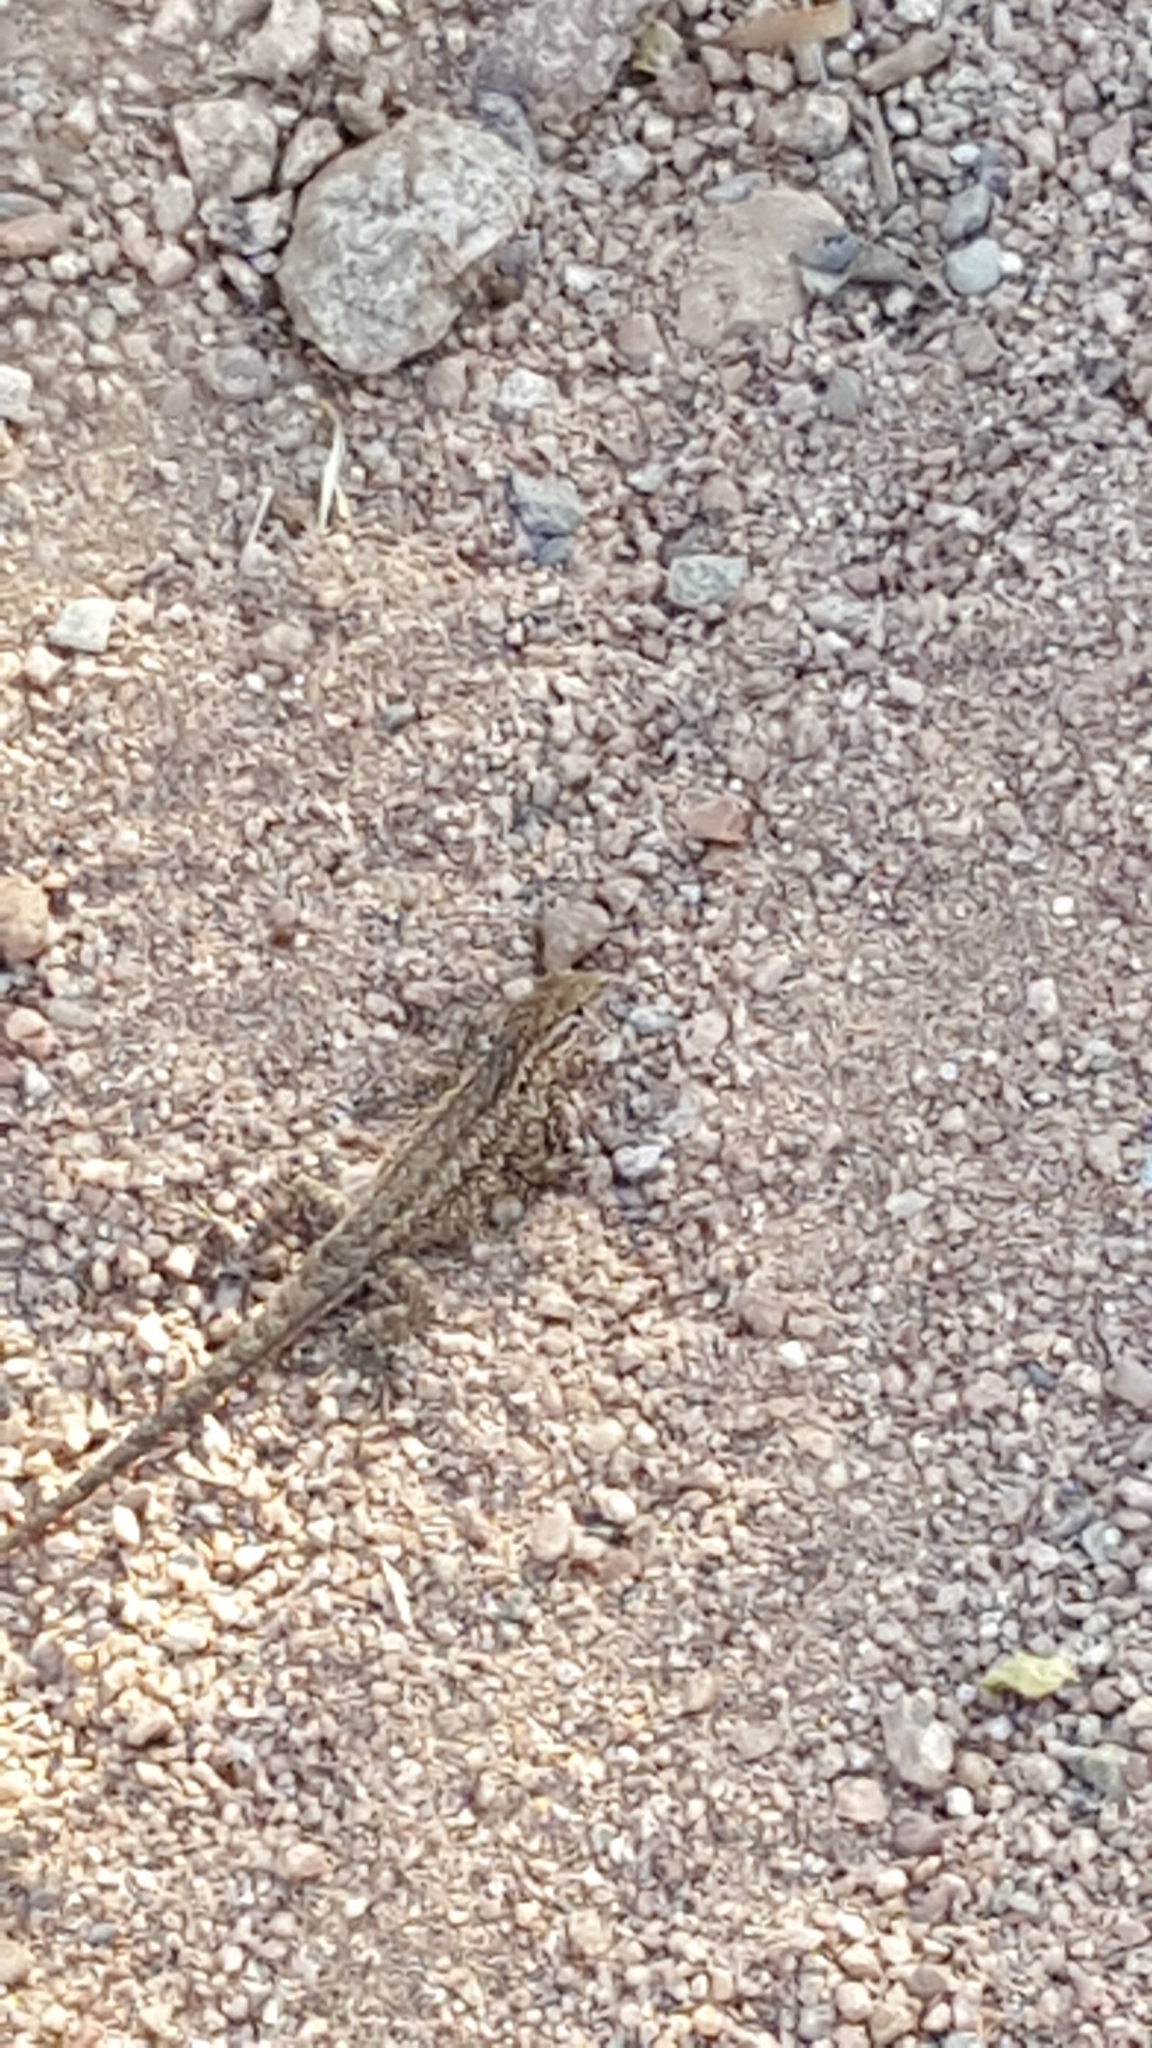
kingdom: Animalia
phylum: Chordata
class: Squamata
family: Phrynosomatidae
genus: Uta
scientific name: Uta stansburiana
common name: Side-blotched lizard
